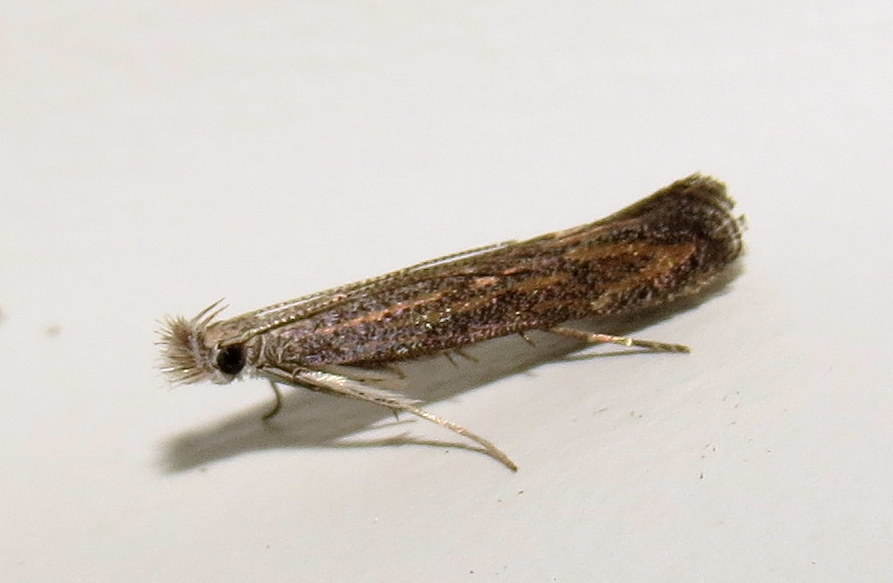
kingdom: Animalia
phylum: Arthropoda
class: Insecta
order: Lepidoptera
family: Gelechiidae
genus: Isophrictis
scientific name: Isophrictis rudbeckiella
